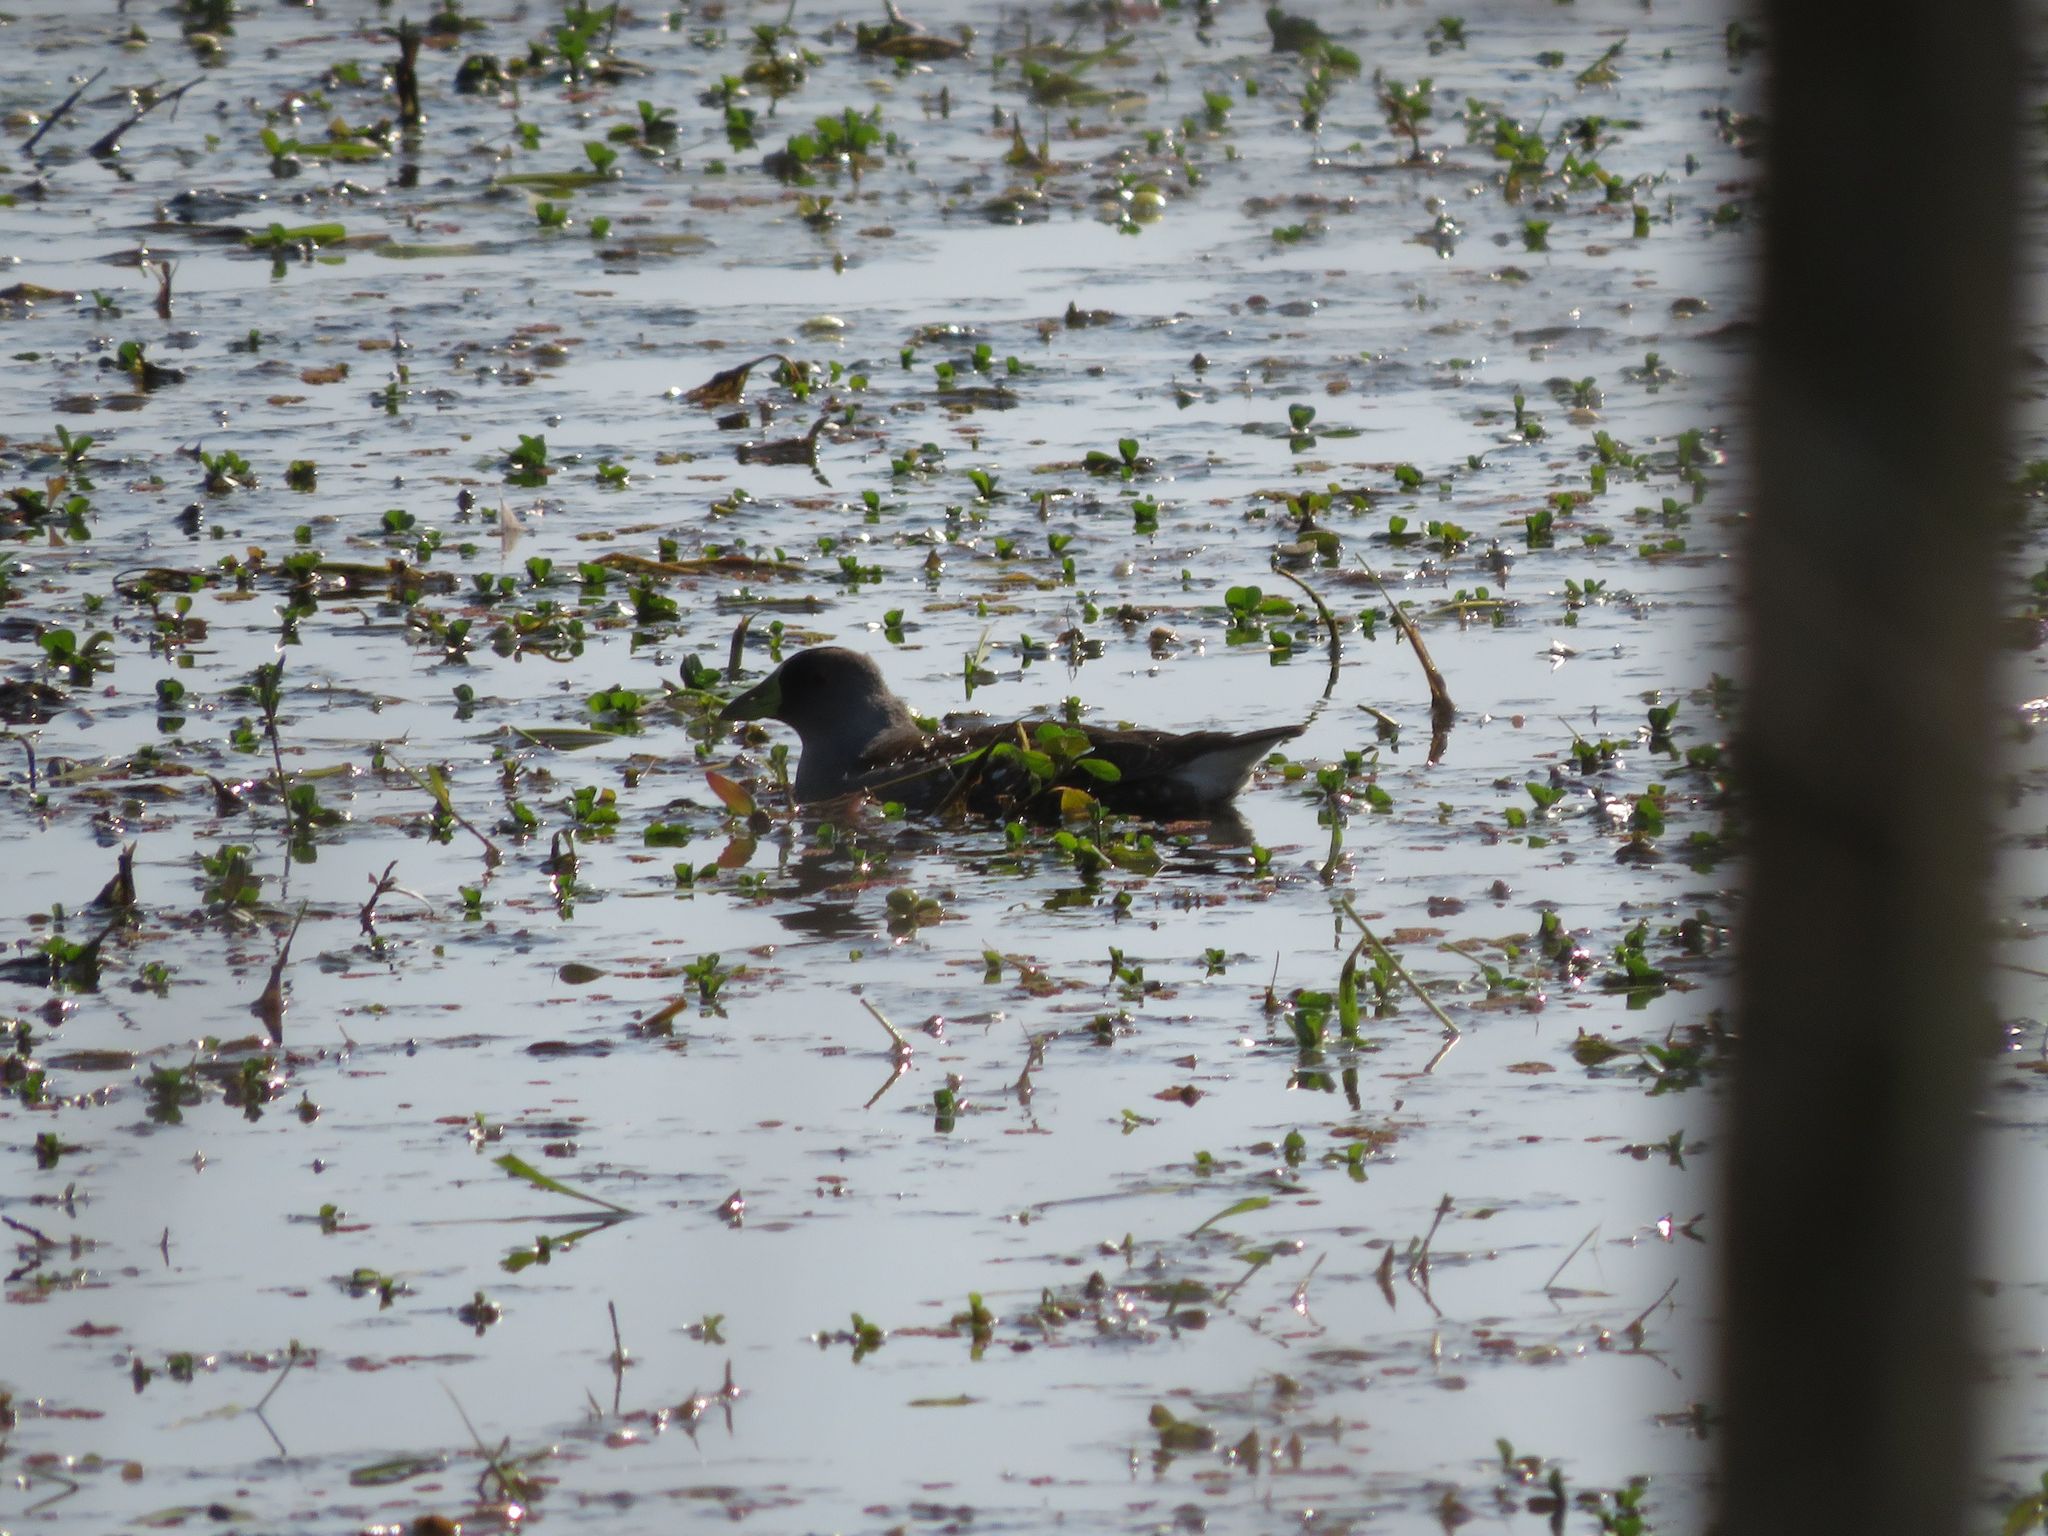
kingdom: Animalia
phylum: Chordata
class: Aves
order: Gruiformes
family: Rallidae
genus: Gallinula
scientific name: Gallinula melanops
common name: Spot-flanked gallinule
